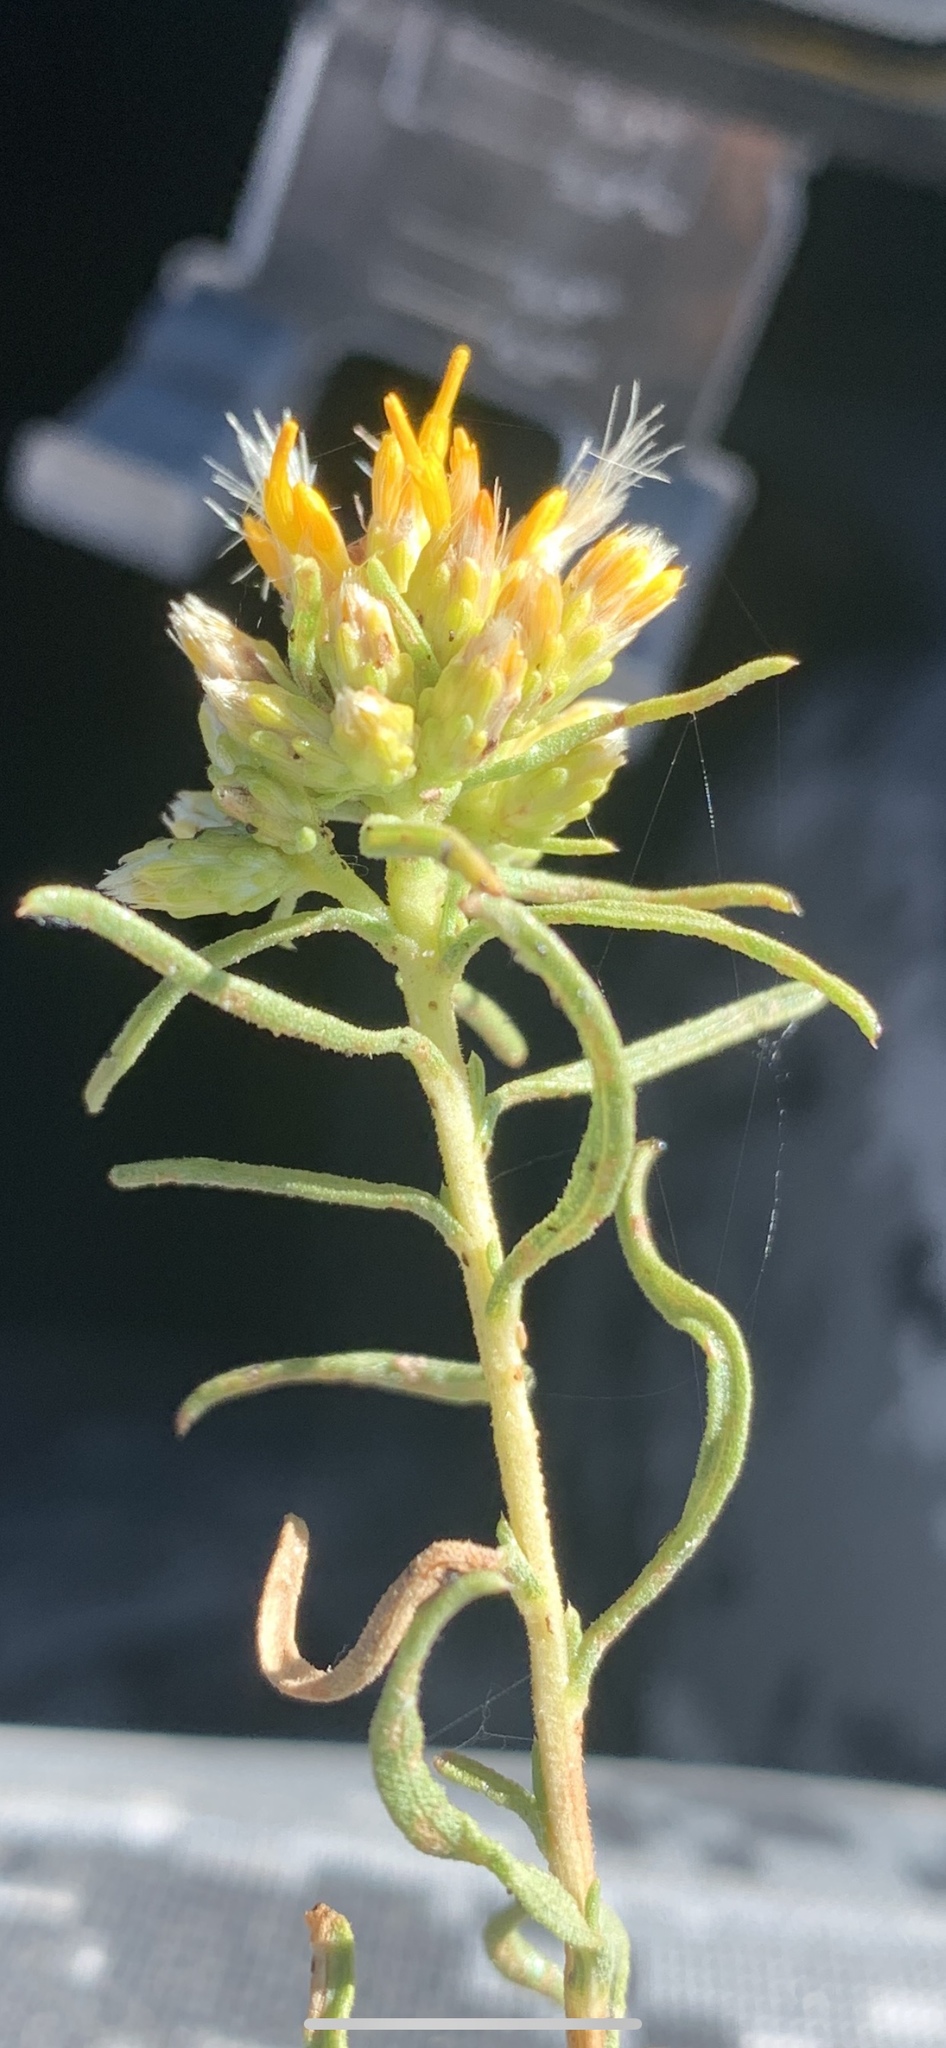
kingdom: Plantae
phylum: Tracheophyta
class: Magnoliopsida
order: Asterales
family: Asteraceae
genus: Isocoma
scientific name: Isocoma acradenia
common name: Alkali jimmyweed
